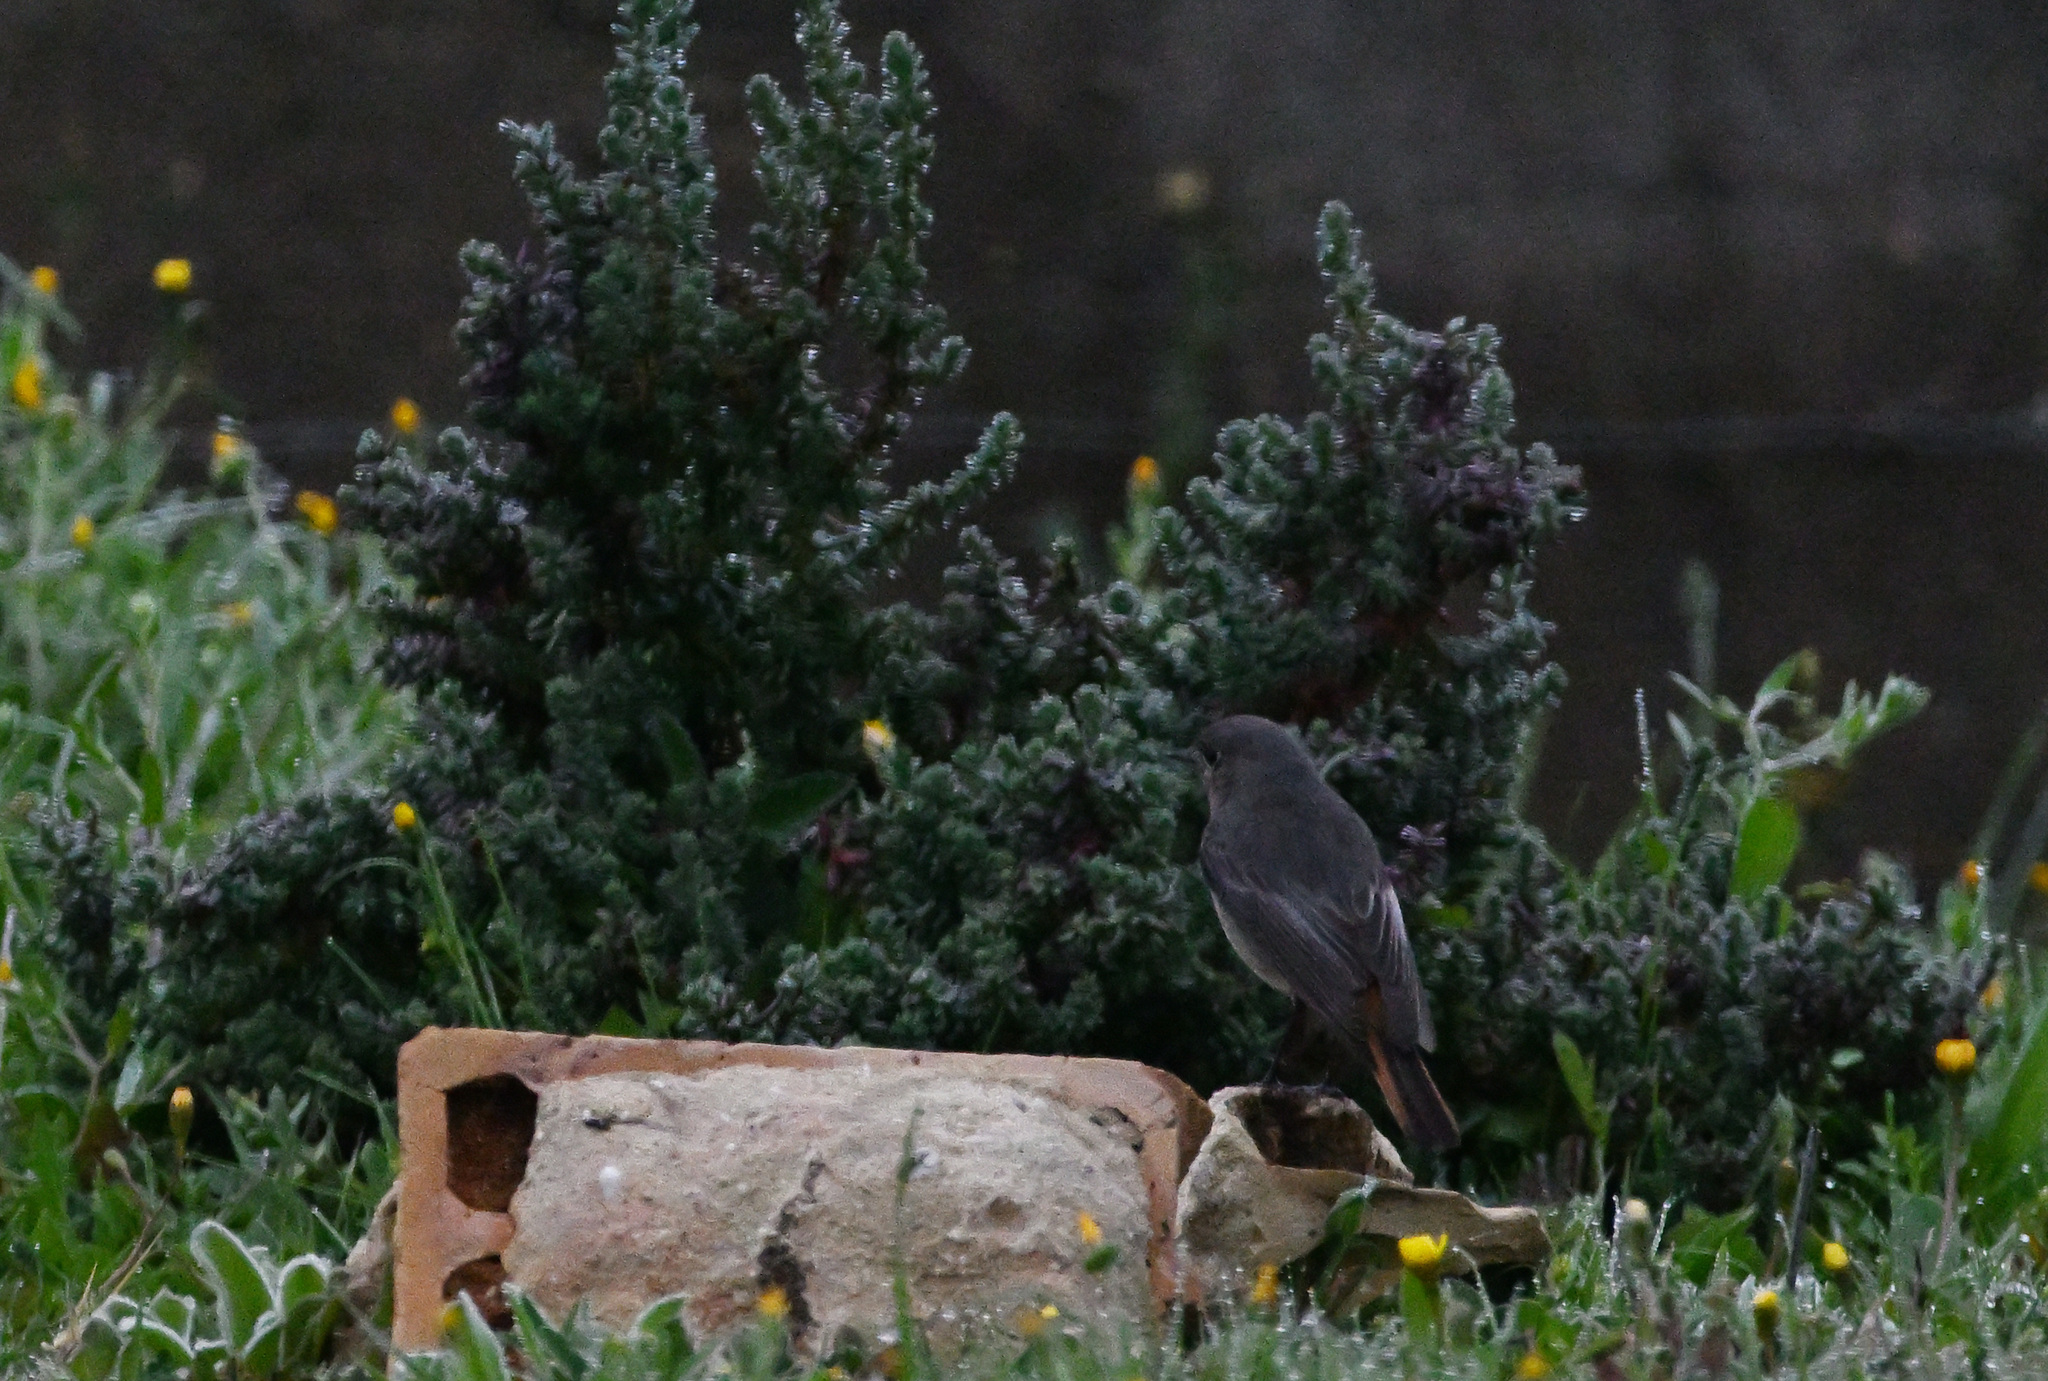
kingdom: Animalia
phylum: Chordata
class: Aves
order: Passeriformes
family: Muscicapidae
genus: Phoenicurus
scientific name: Phoenicurus ochruros
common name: Black redstart
